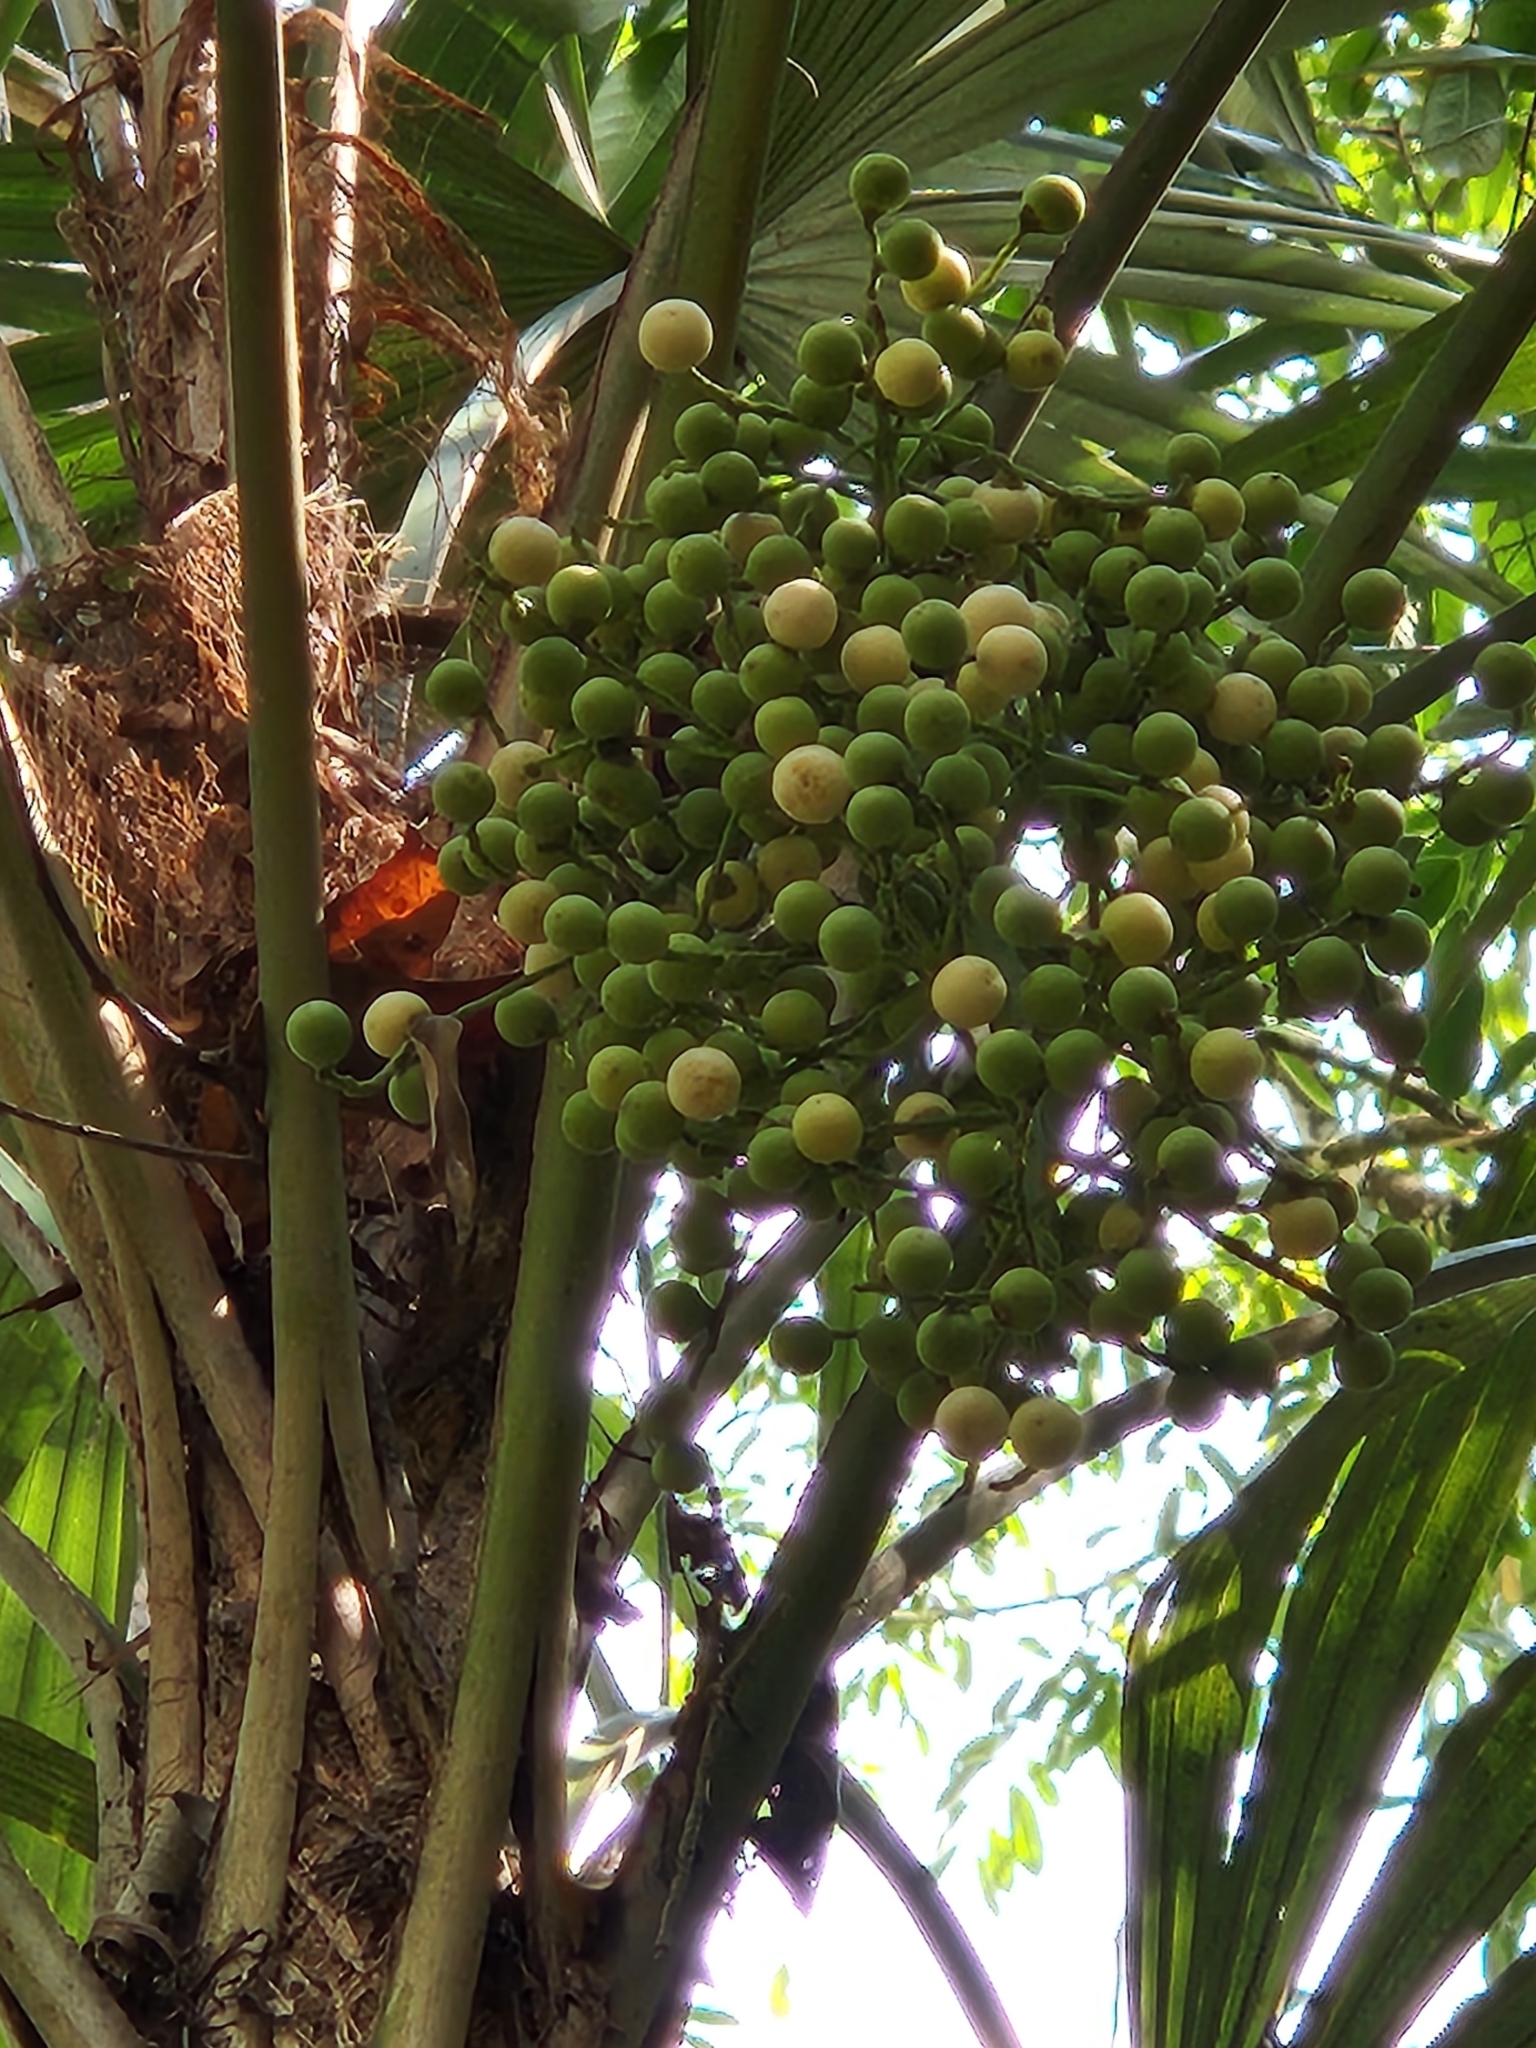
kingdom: Plantae
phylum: Tracheophyta
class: Liliopsida
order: Arecales
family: Arecaceae
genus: Cryosophila
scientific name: Cryosophila stauracantha
